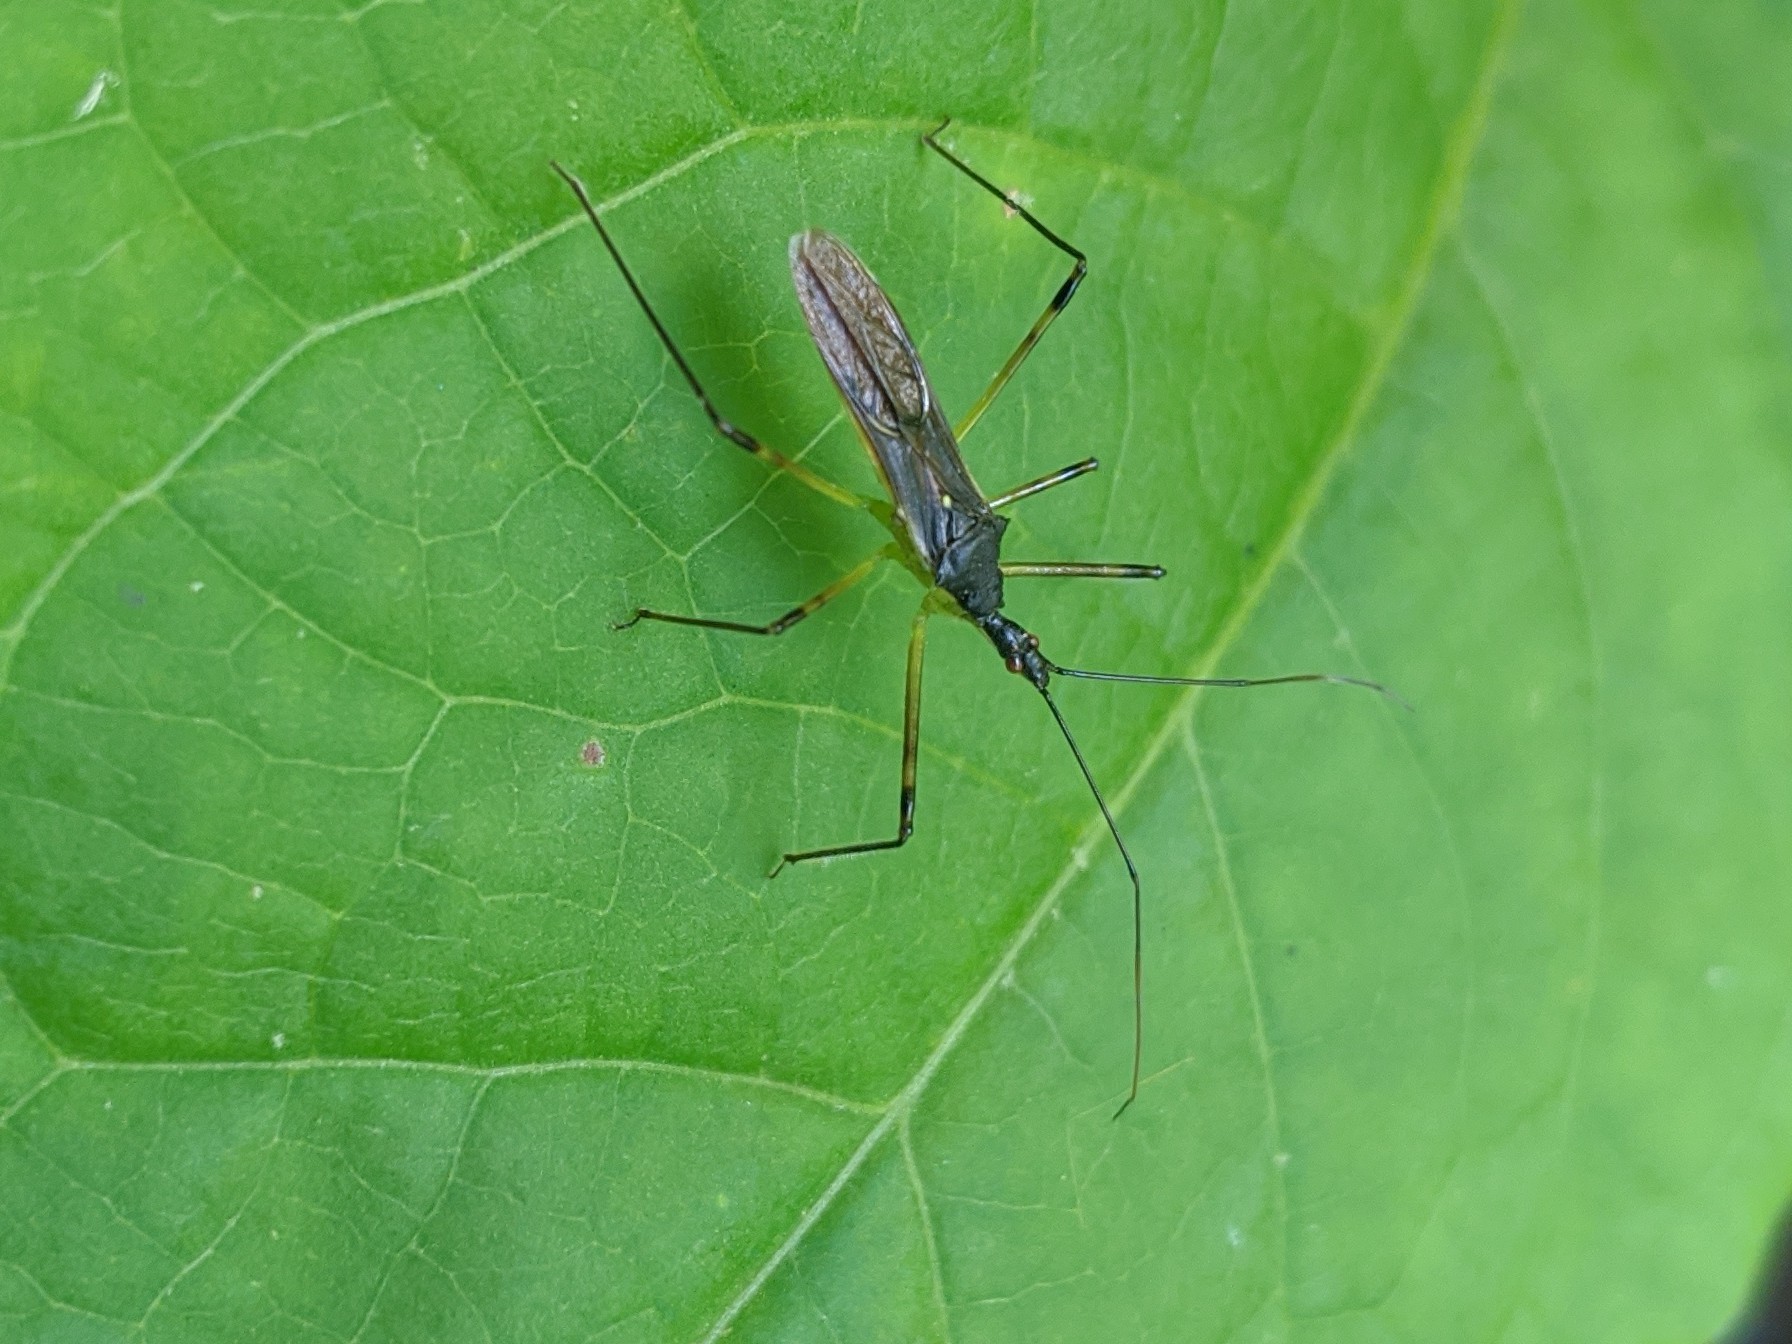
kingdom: Animalia
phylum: Arthropoda
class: Insecta
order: Hemiptera
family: Reduviidae
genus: Zelus
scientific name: Zelus luridus
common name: Pale green assassin bug
